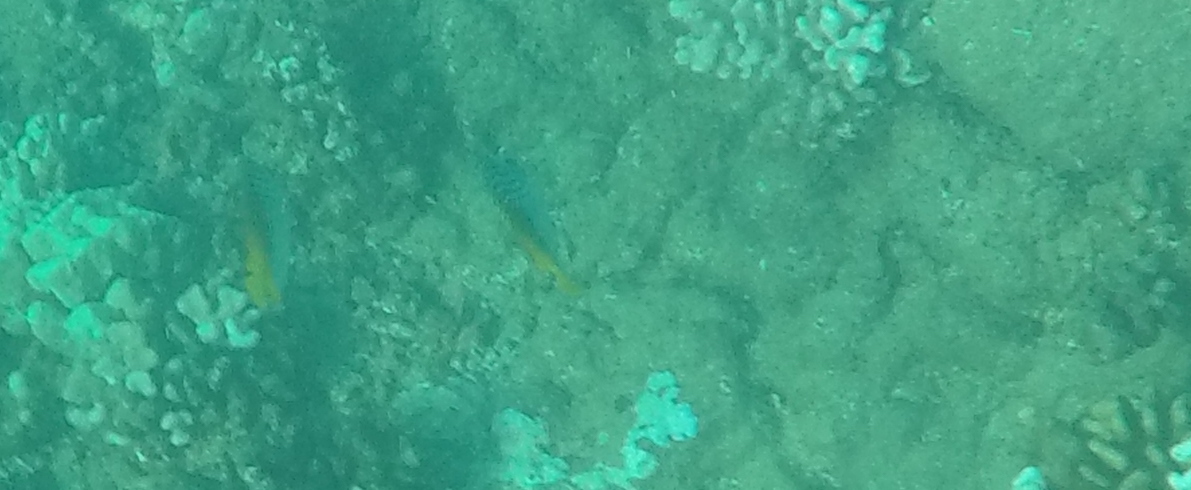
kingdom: Animalia
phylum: Chordata
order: Perciformes
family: Chaetodontidae
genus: Chaetodon
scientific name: Chaetodon auriga
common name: Threadfin butterflyfish
